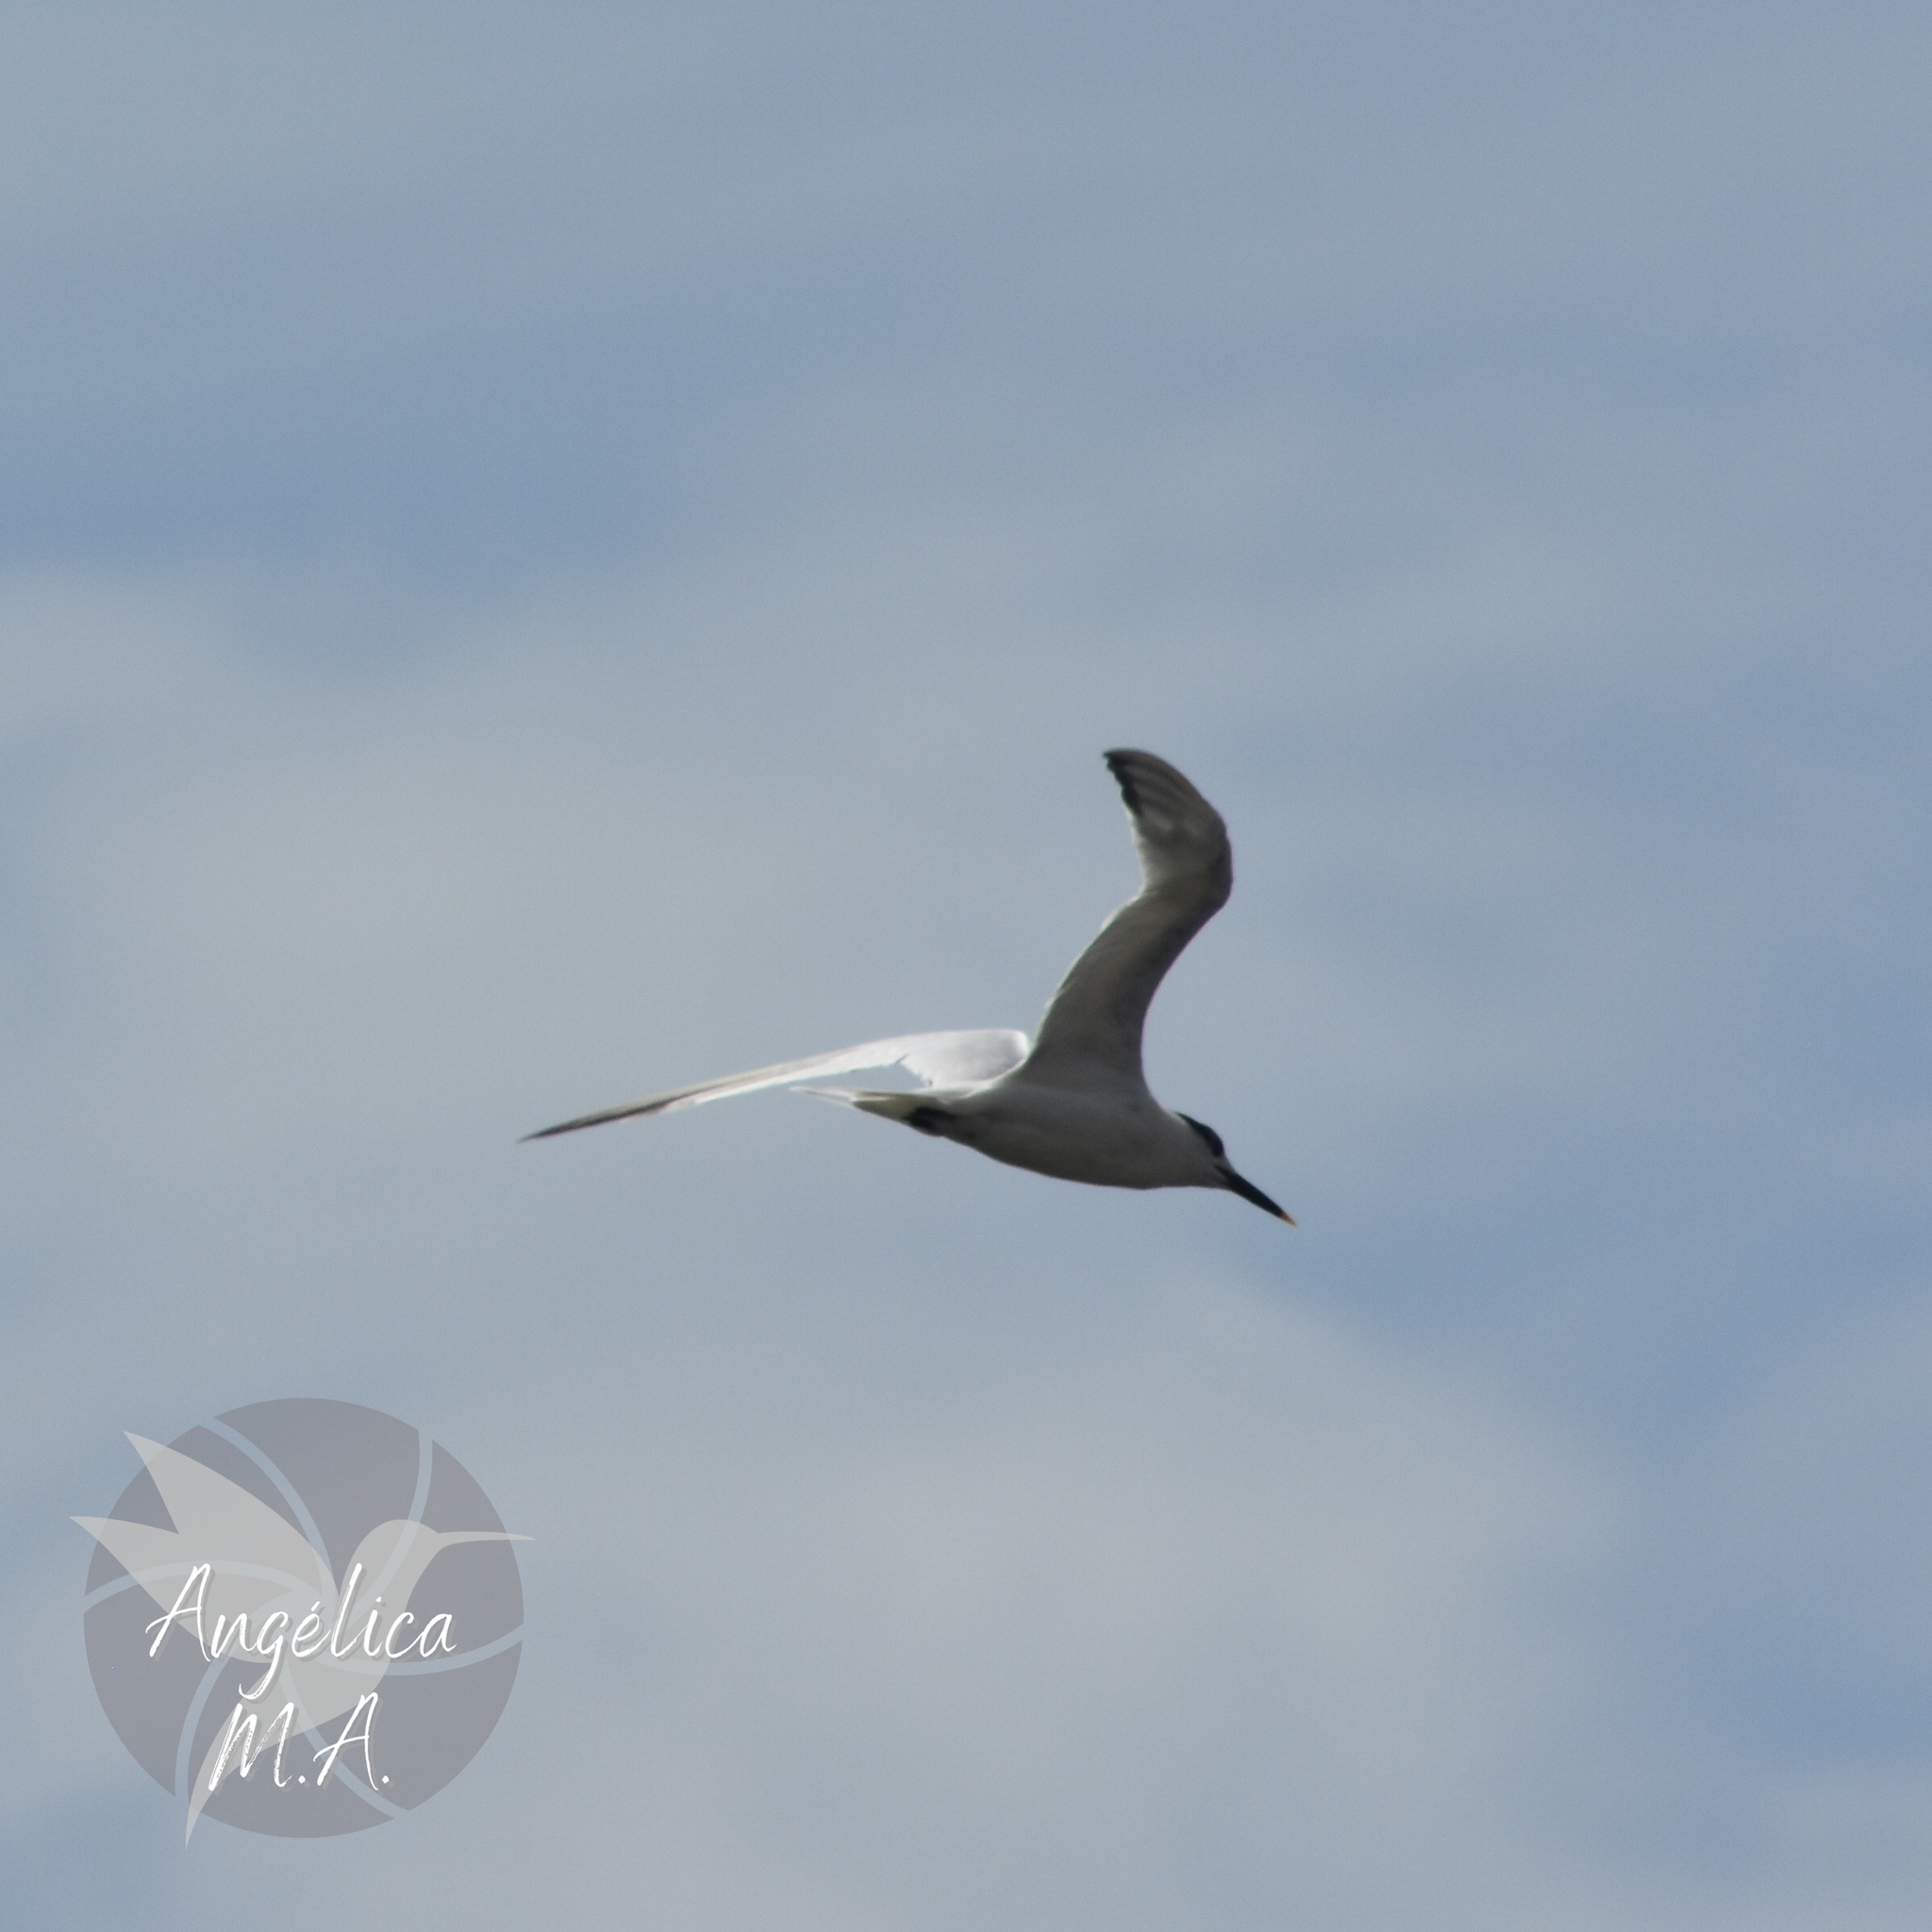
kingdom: Animalia
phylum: Chordata
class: Aves
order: Charadriiformes
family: Laridae
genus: Thalasseus
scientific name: Thalasseus sandvicensis
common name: Sandwich tern
